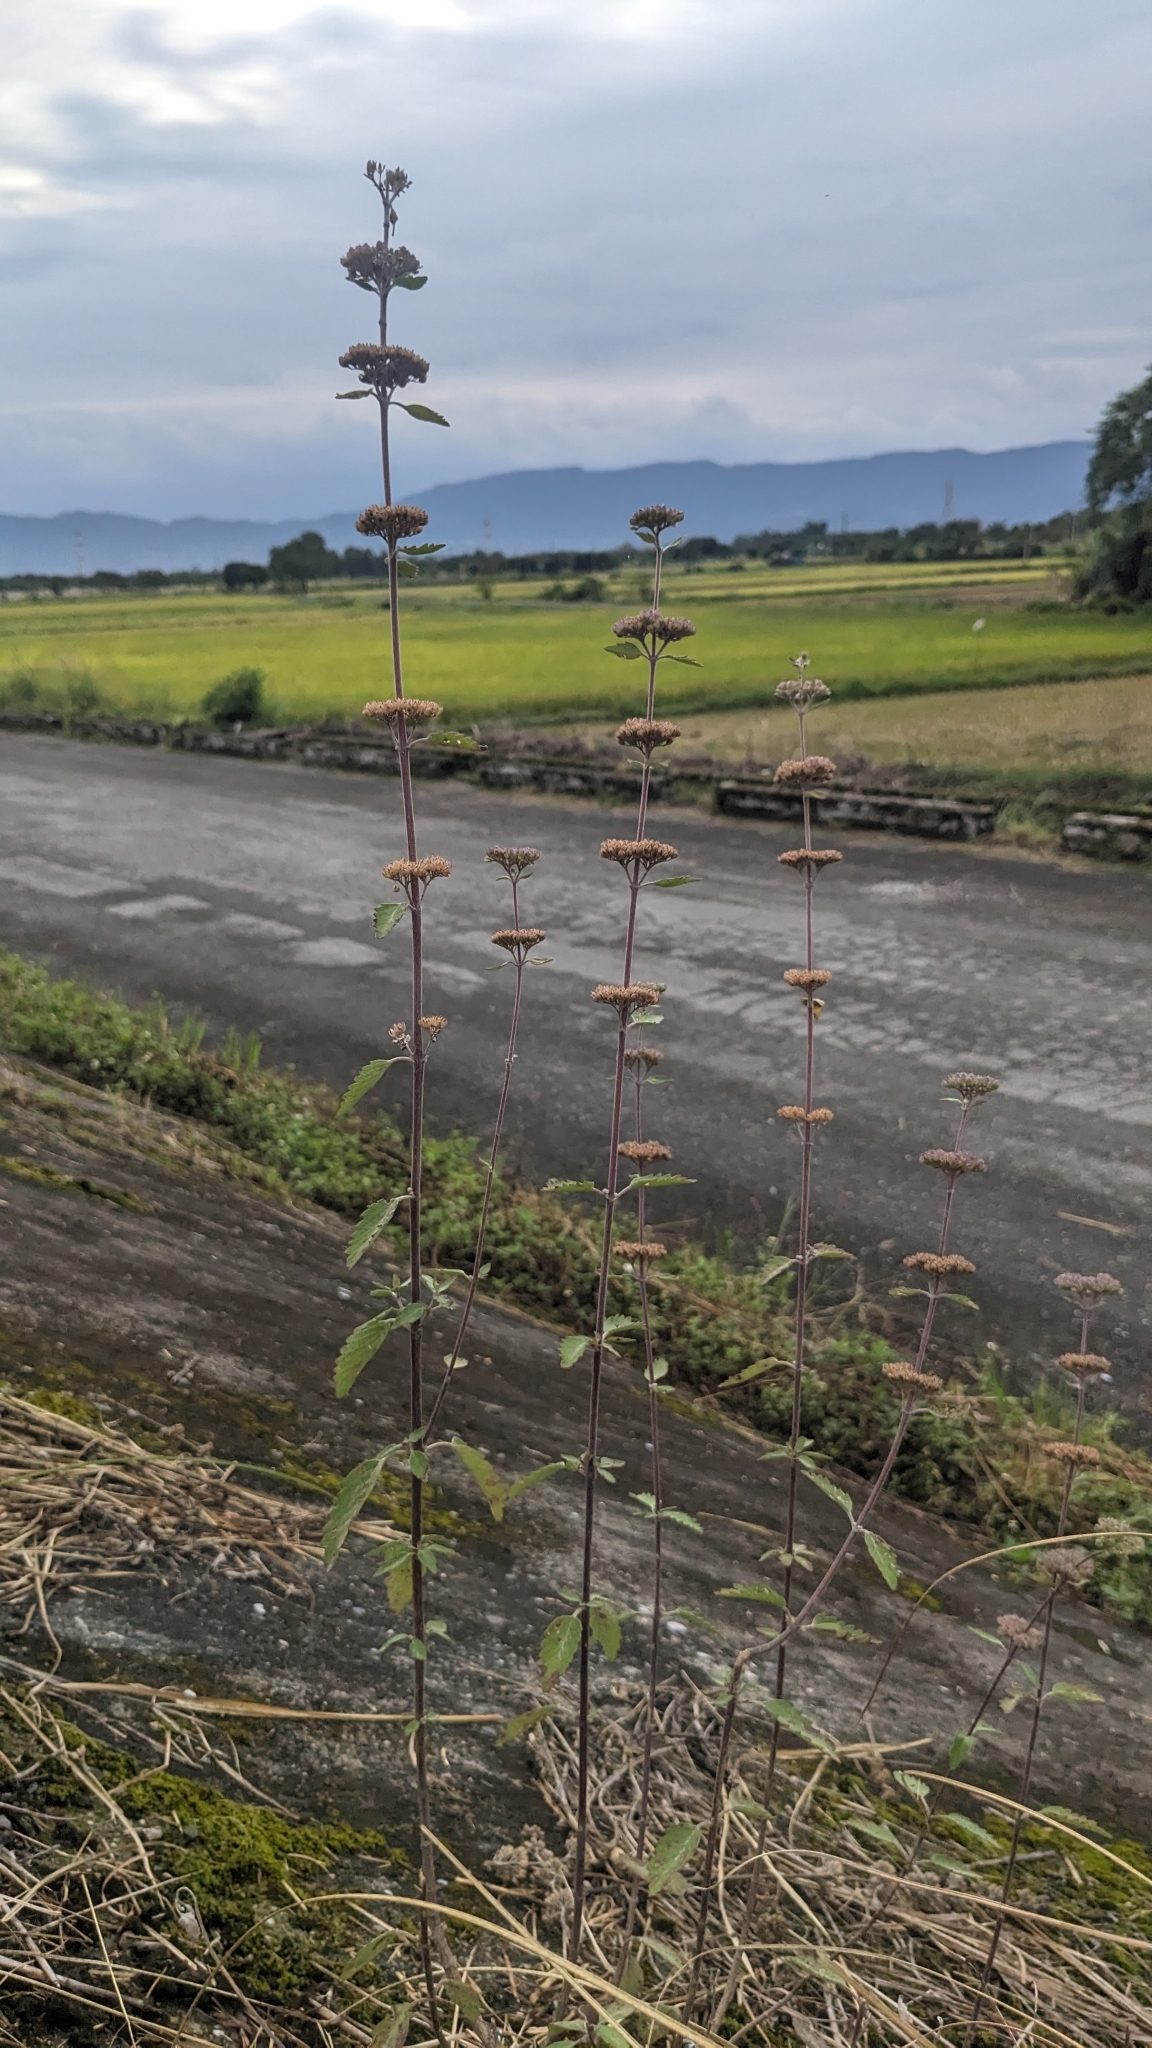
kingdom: Plantae
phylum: Tracheophyta
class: Magnoliopsida
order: Lamiales
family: Lamiaceae
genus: Caryopteris
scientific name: Caryopteris incana
